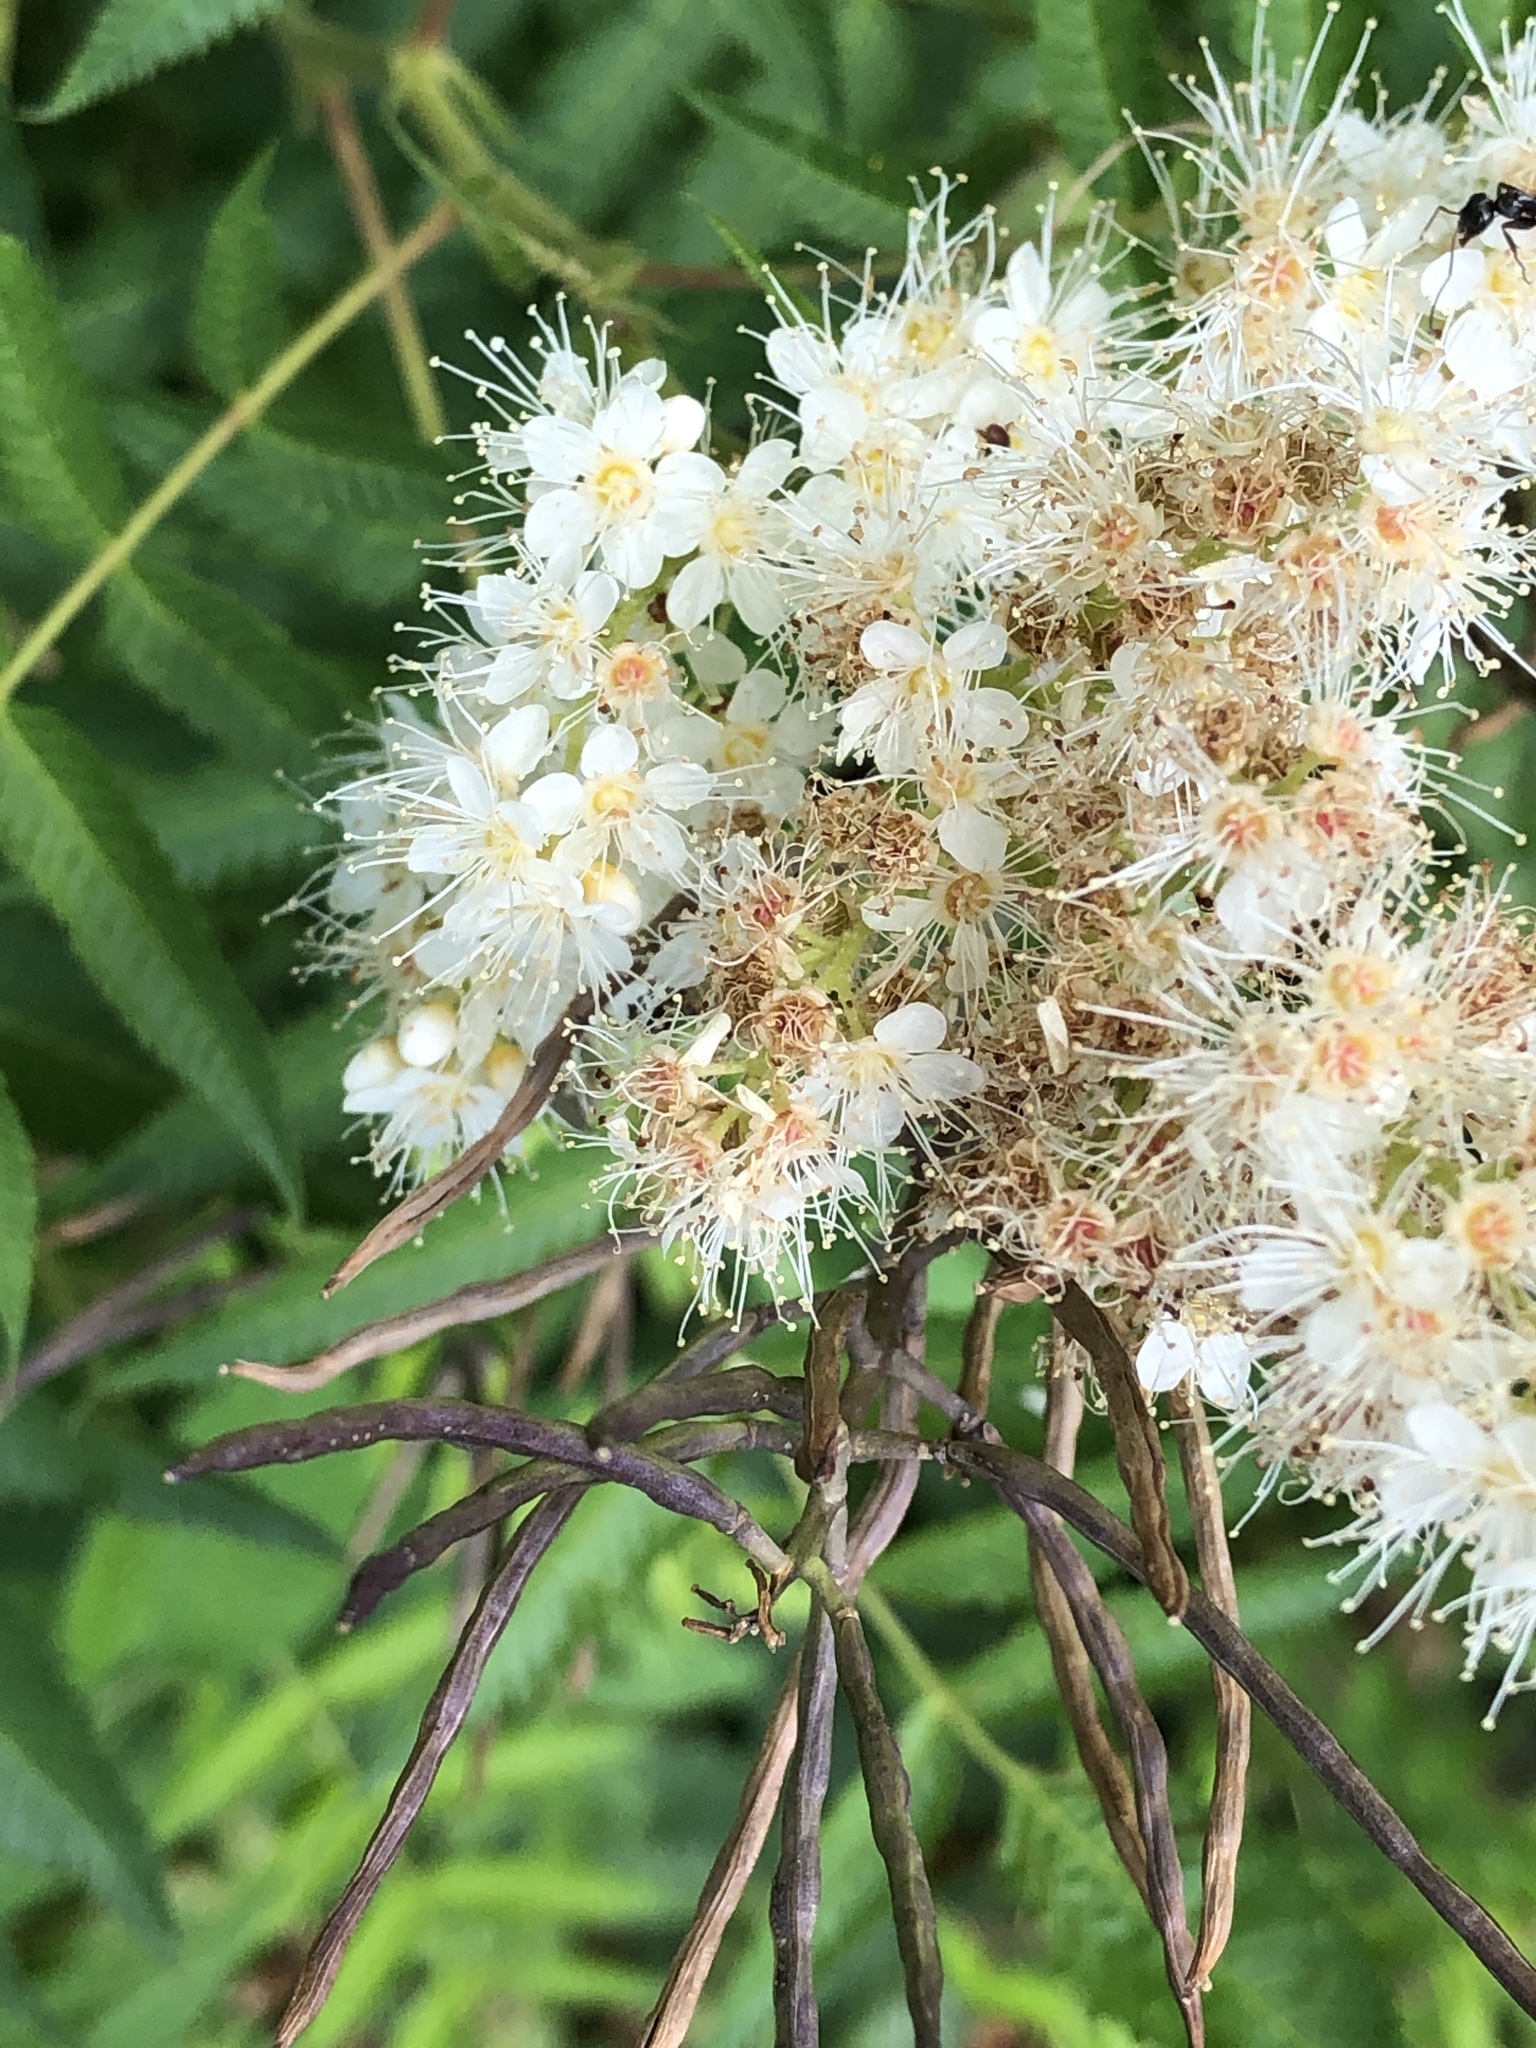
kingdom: Plantae
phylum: Tracheophyta
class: Magnoliopsida
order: Rosales
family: Rosaceae
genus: Sorbaria
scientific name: Sorbaria sorbifolia
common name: False spiraea
